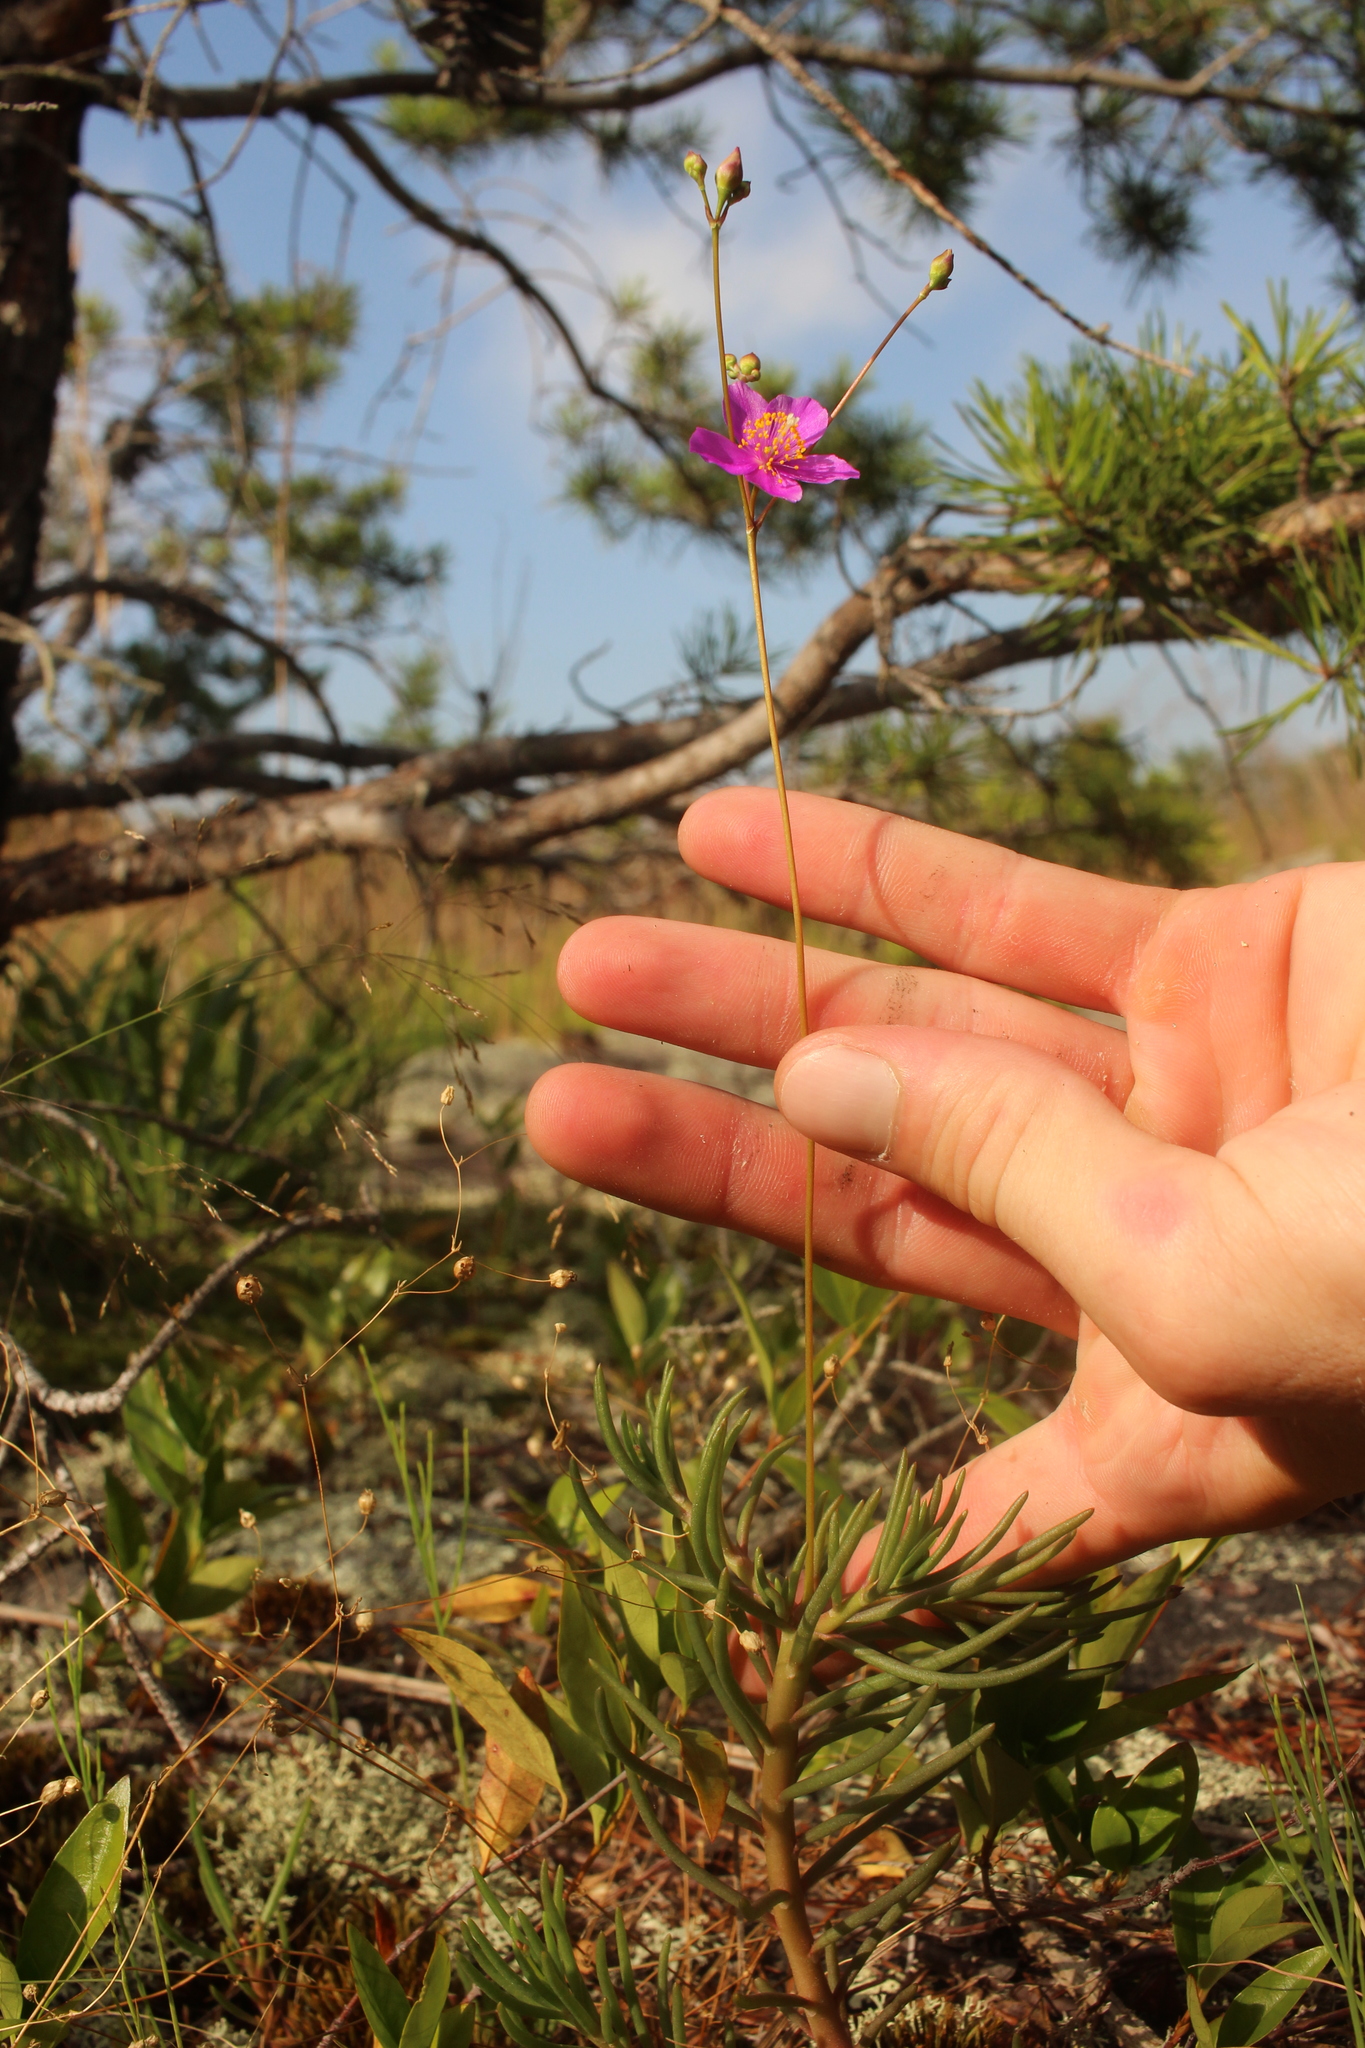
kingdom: Plantae
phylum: Tracheophyta
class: Magnoliopsida
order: Caryophyllales
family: Montiaceae
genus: Phemeranthus
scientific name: Phemeranthus mengesii
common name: Menges' fameflower
